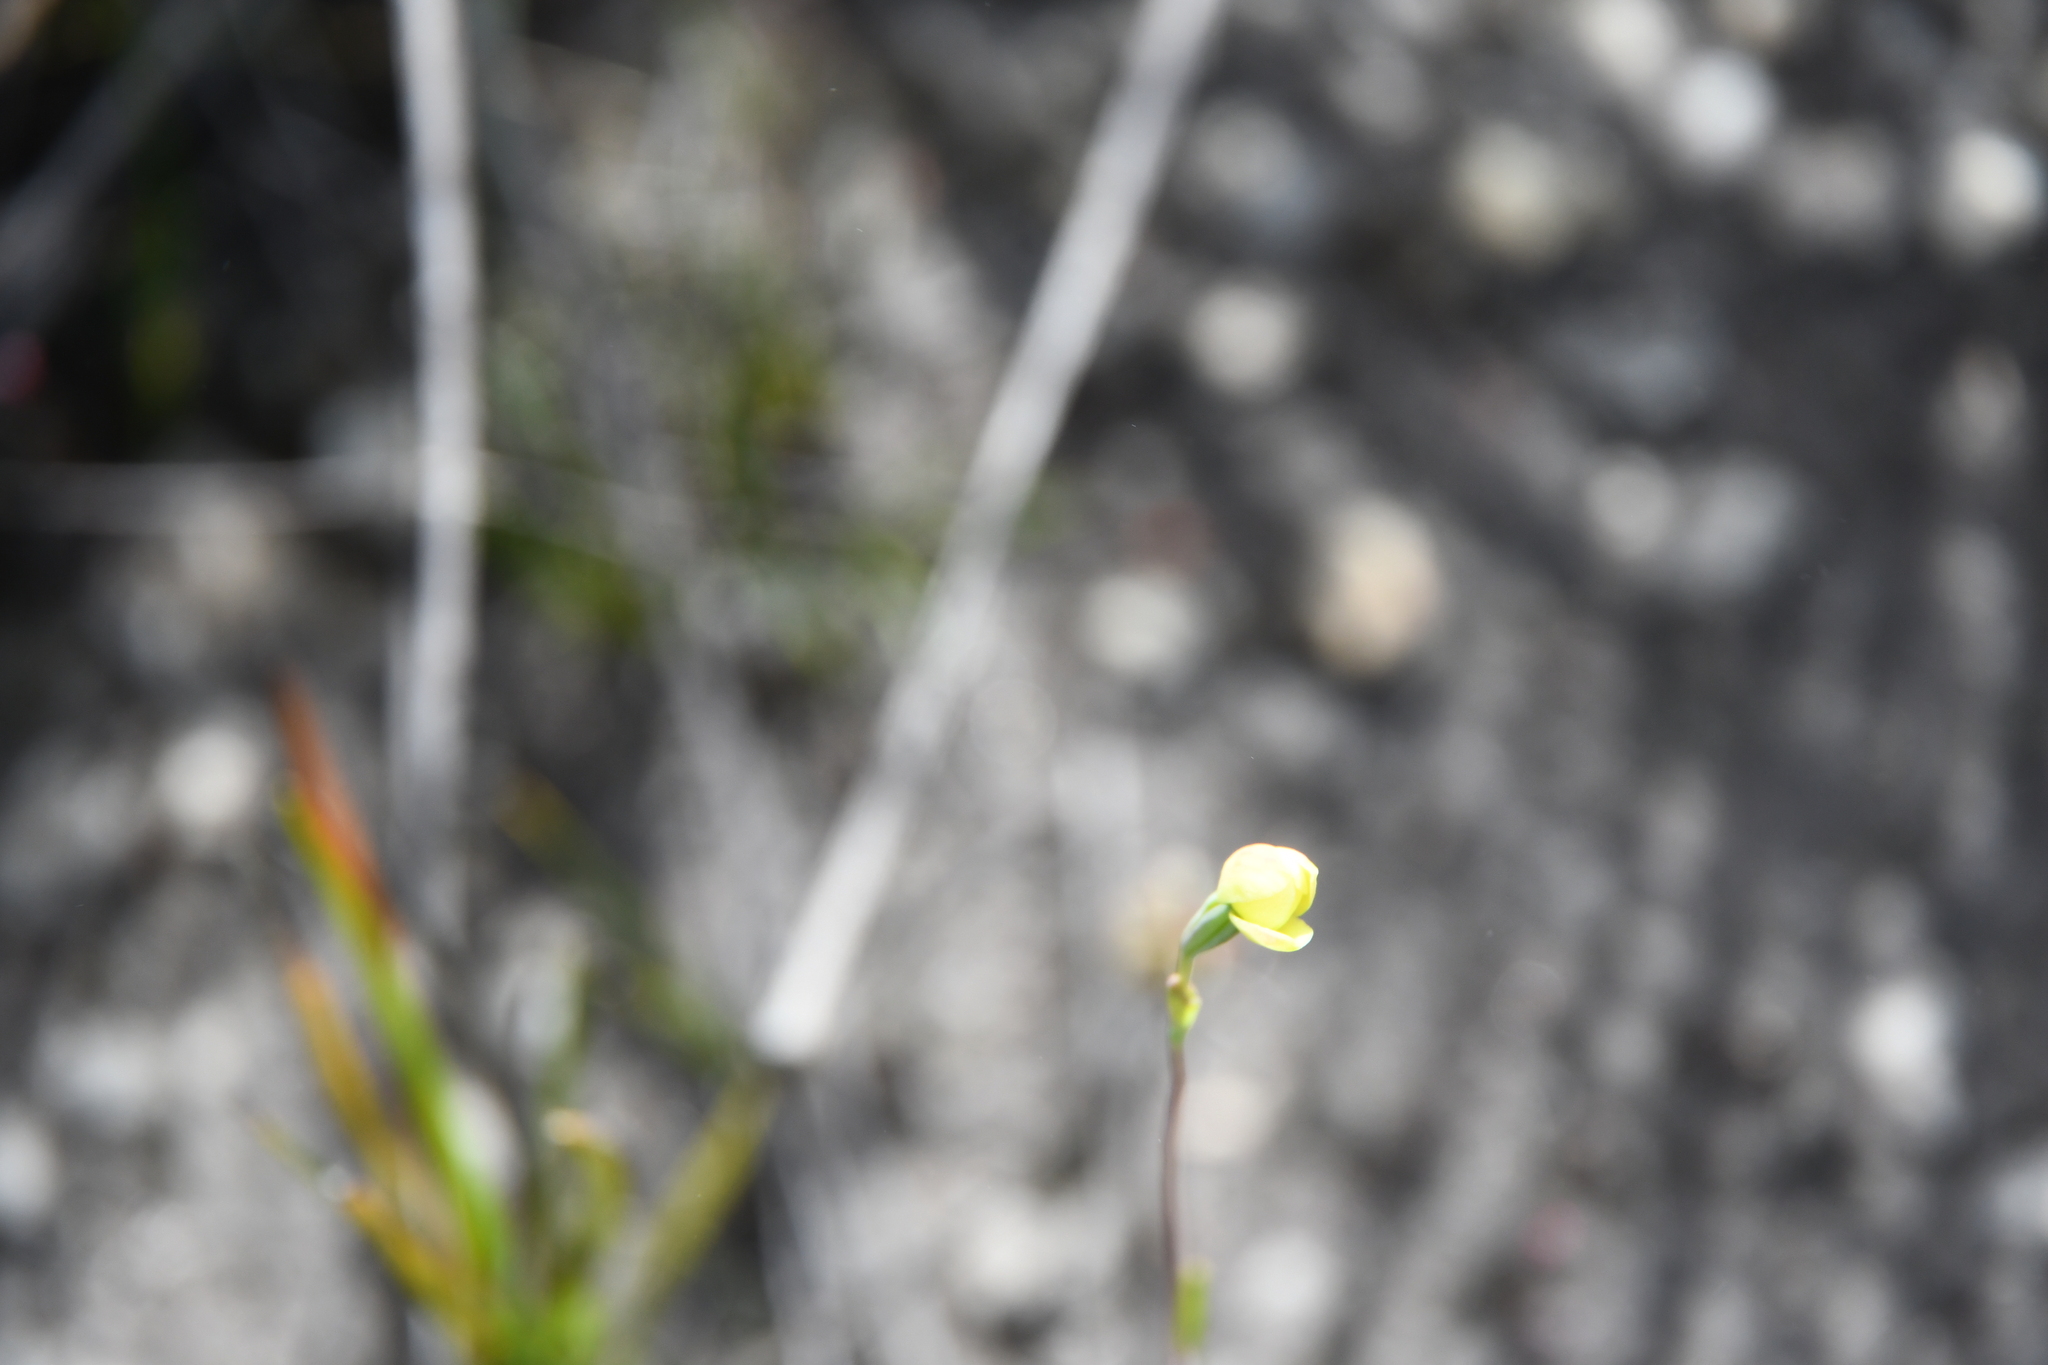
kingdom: Plantae
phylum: Tracheophyta
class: Liliopsida
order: Asparagales
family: Orchidaceae
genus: Thelymitra
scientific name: Thelymitra flexuosa
